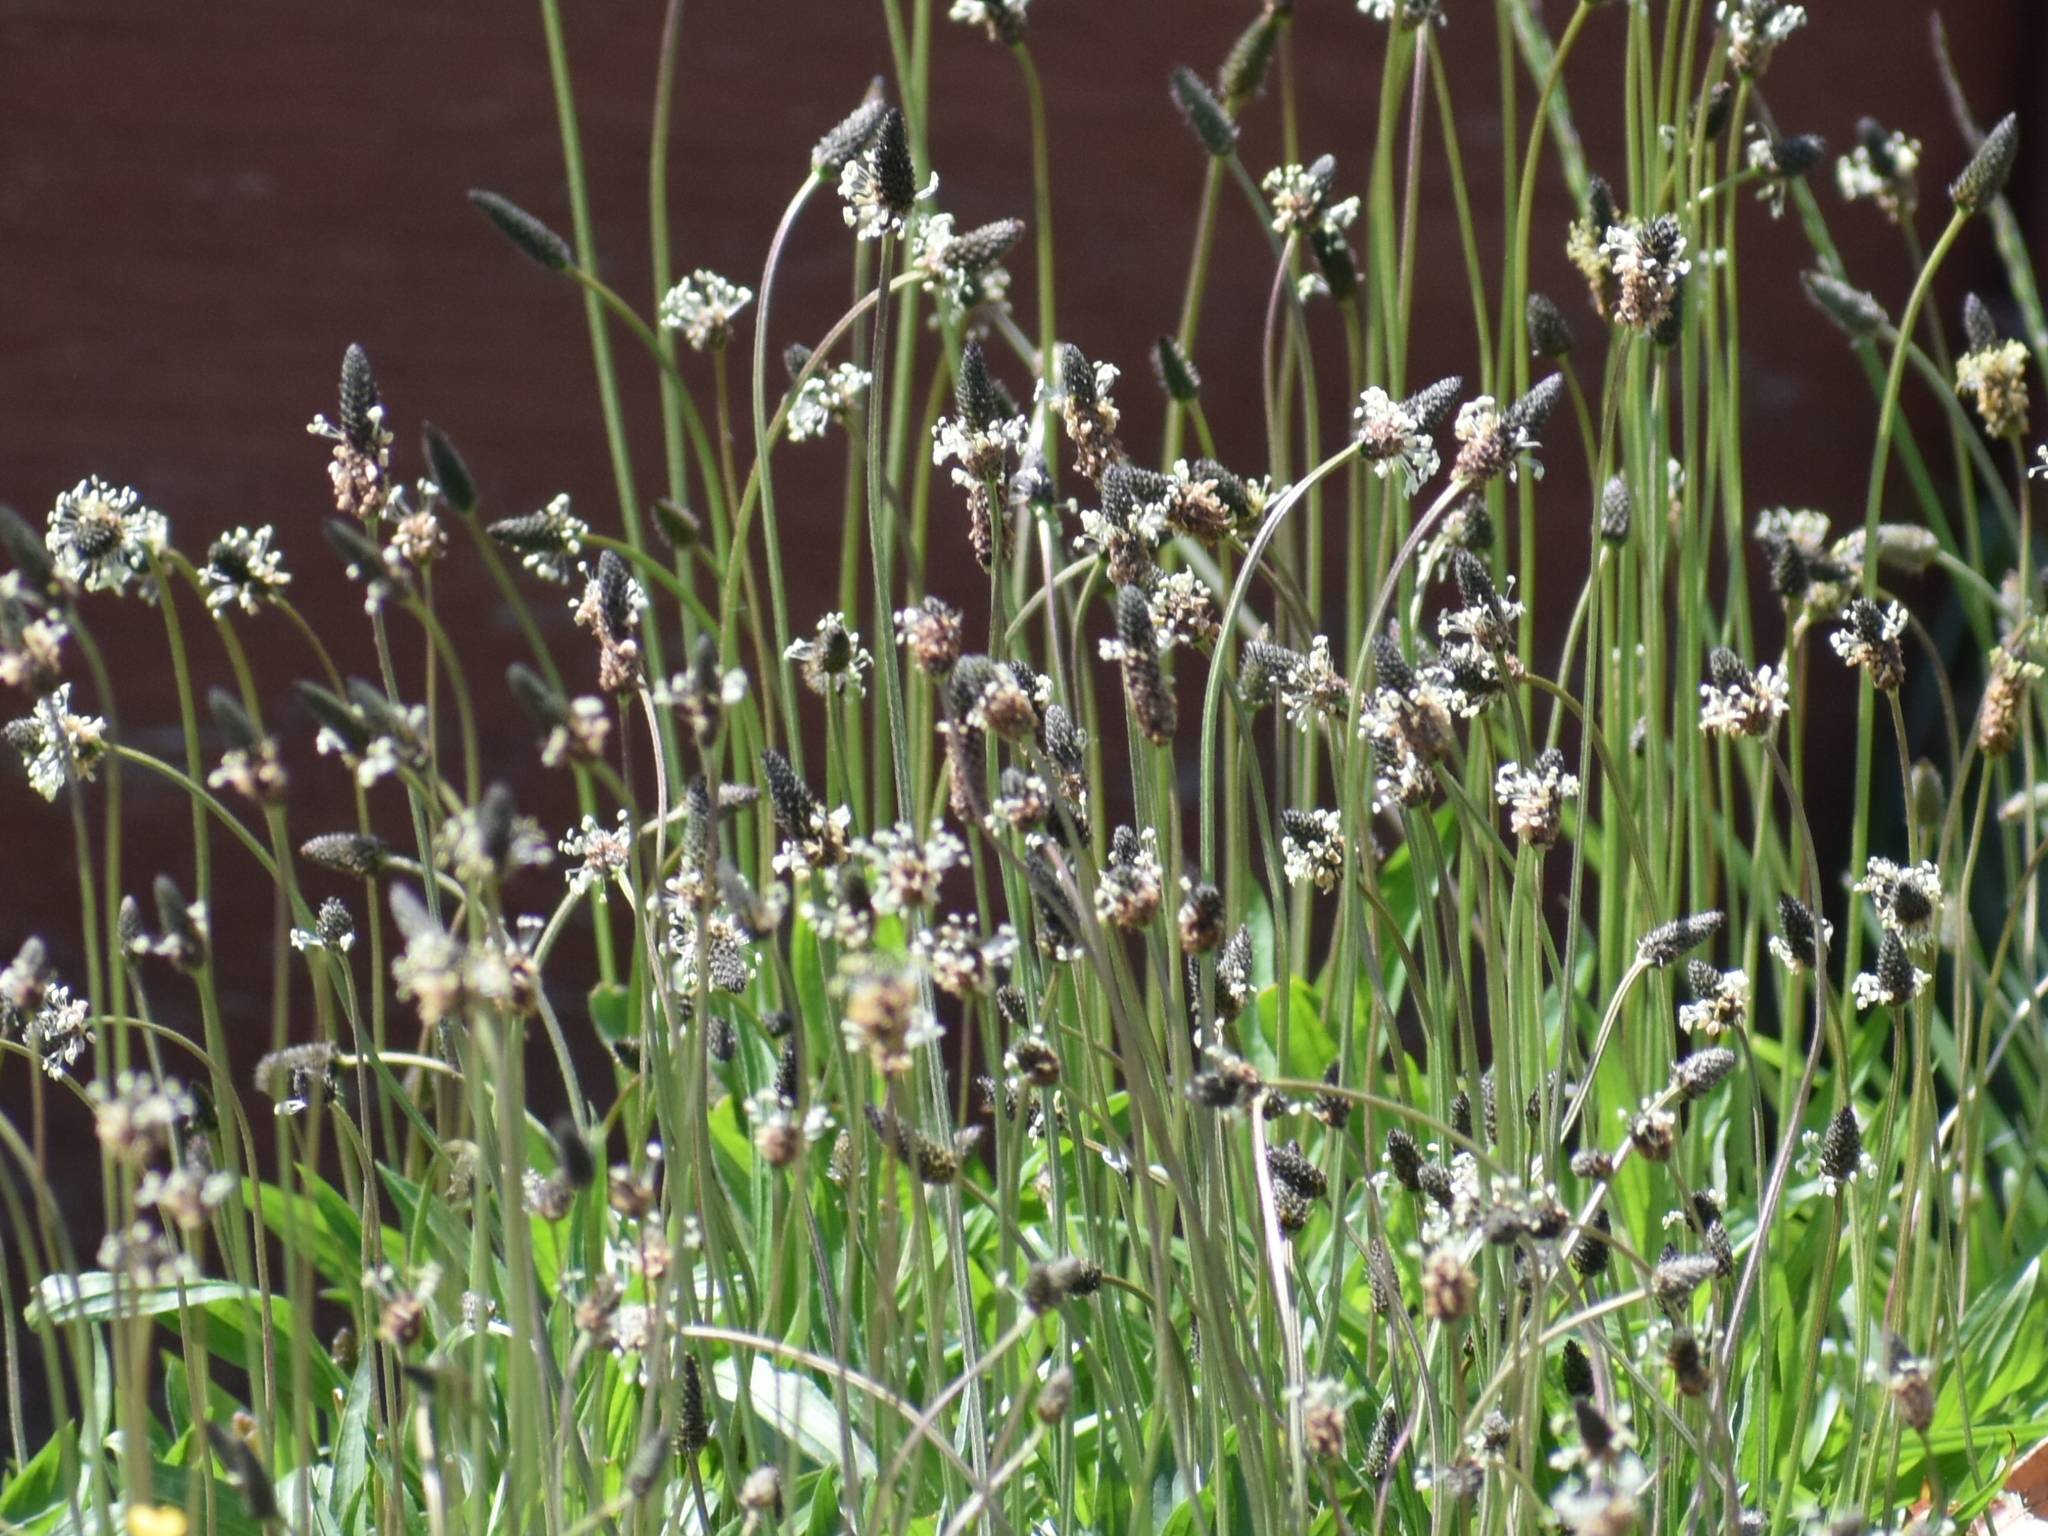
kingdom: Plantae
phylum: Tracheophyta
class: Magnoliopsida
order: Lamiales
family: Plantaginaceae
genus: Plantago
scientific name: Plantago lanceolata
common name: Ribwort plantain
